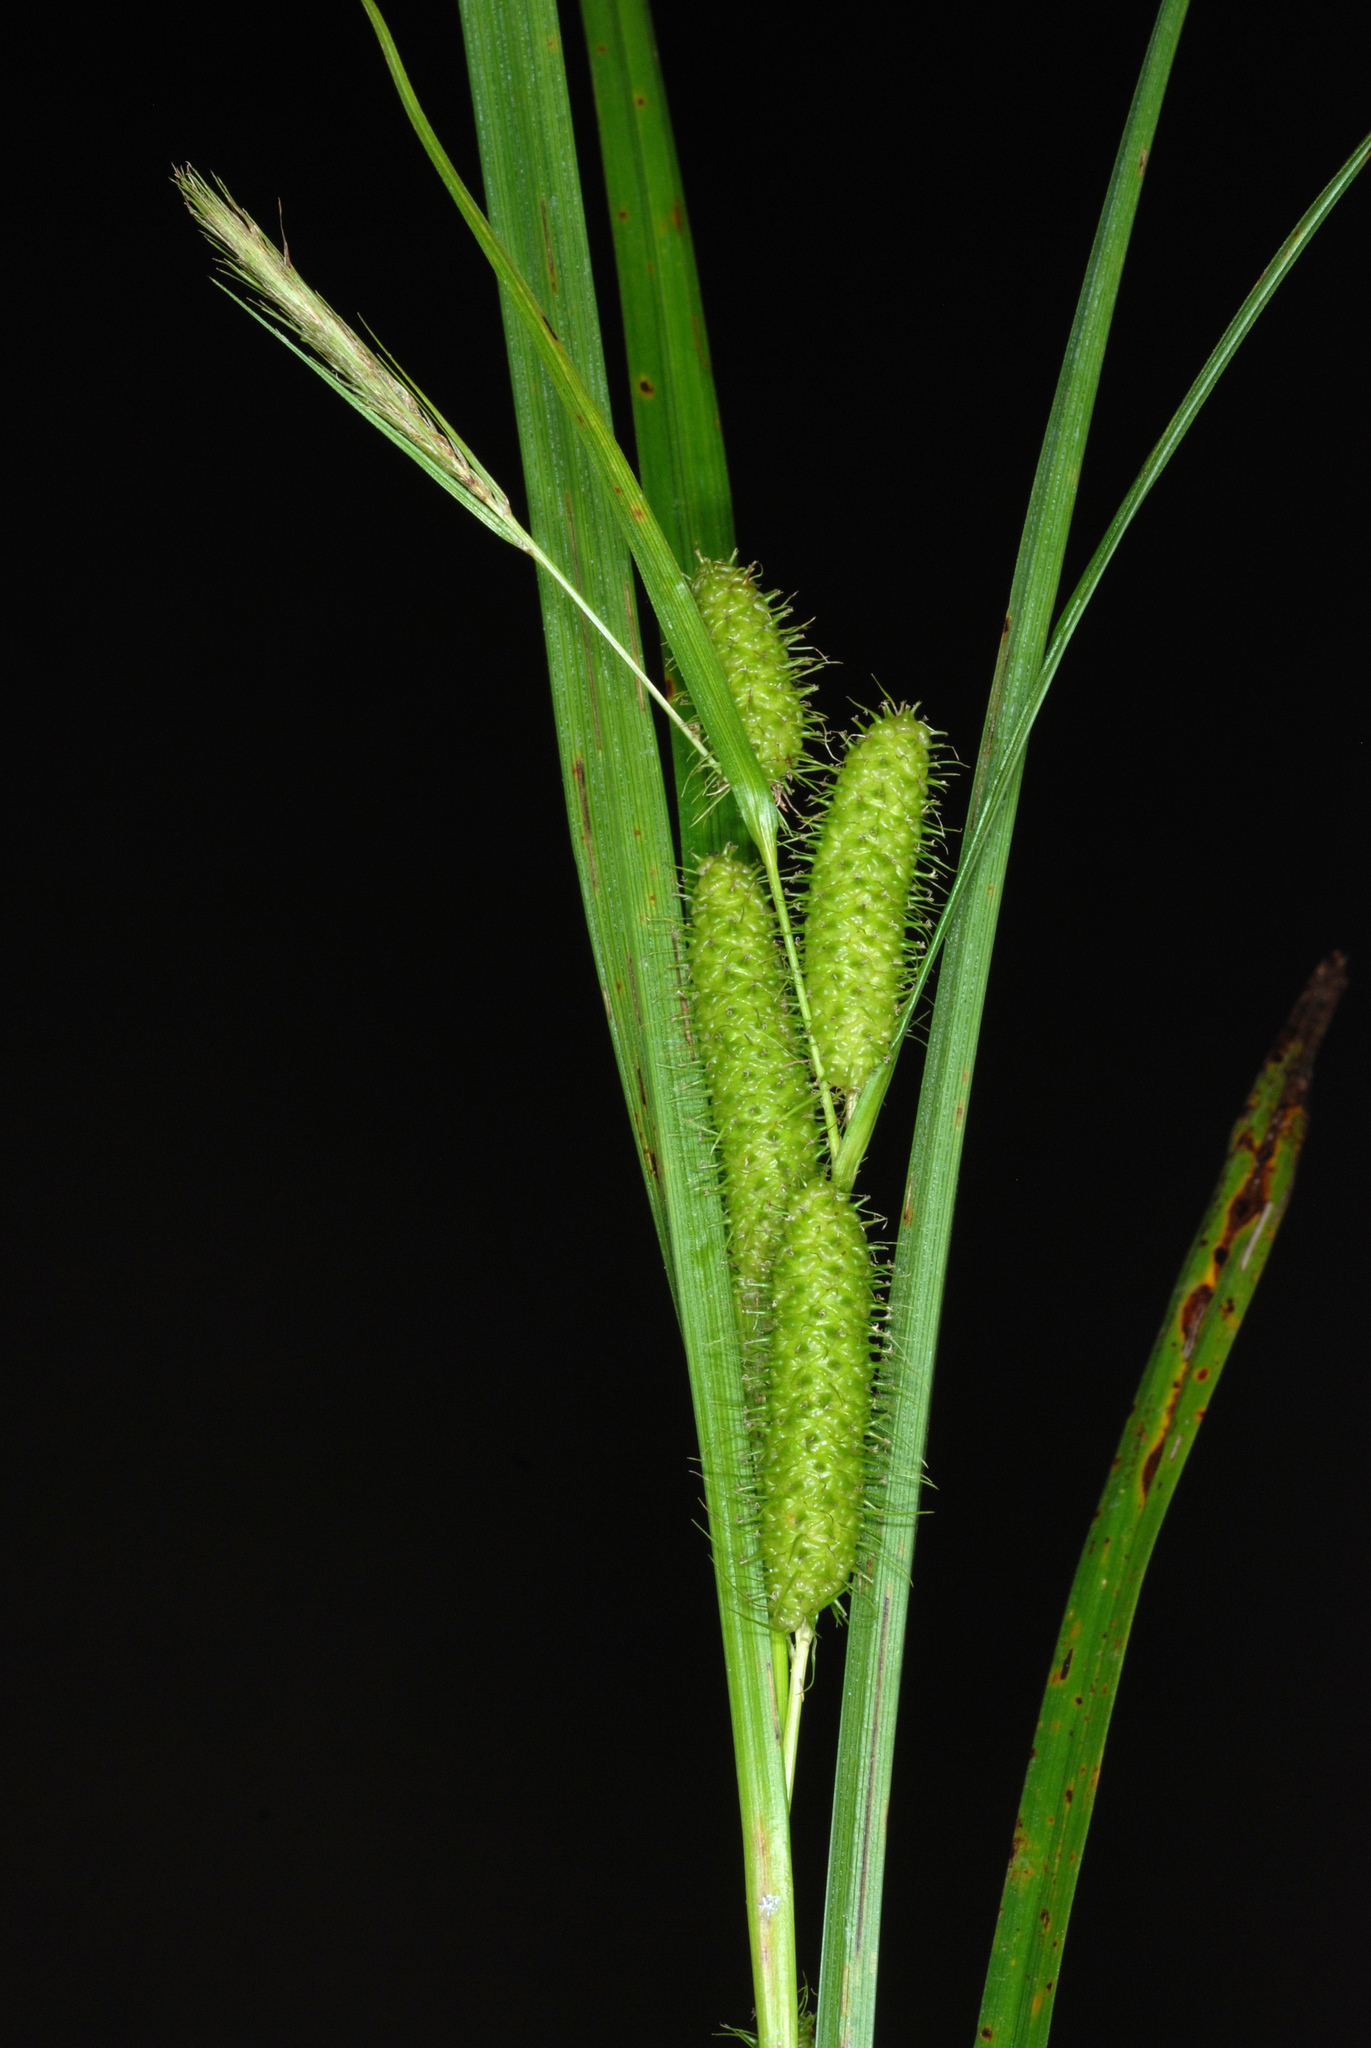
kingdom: Plantae
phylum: Tracheophyta
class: Liliopsida
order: Poales
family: Cyperaceae
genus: Carex
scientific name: Carex frankii
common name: Frank's sedge
